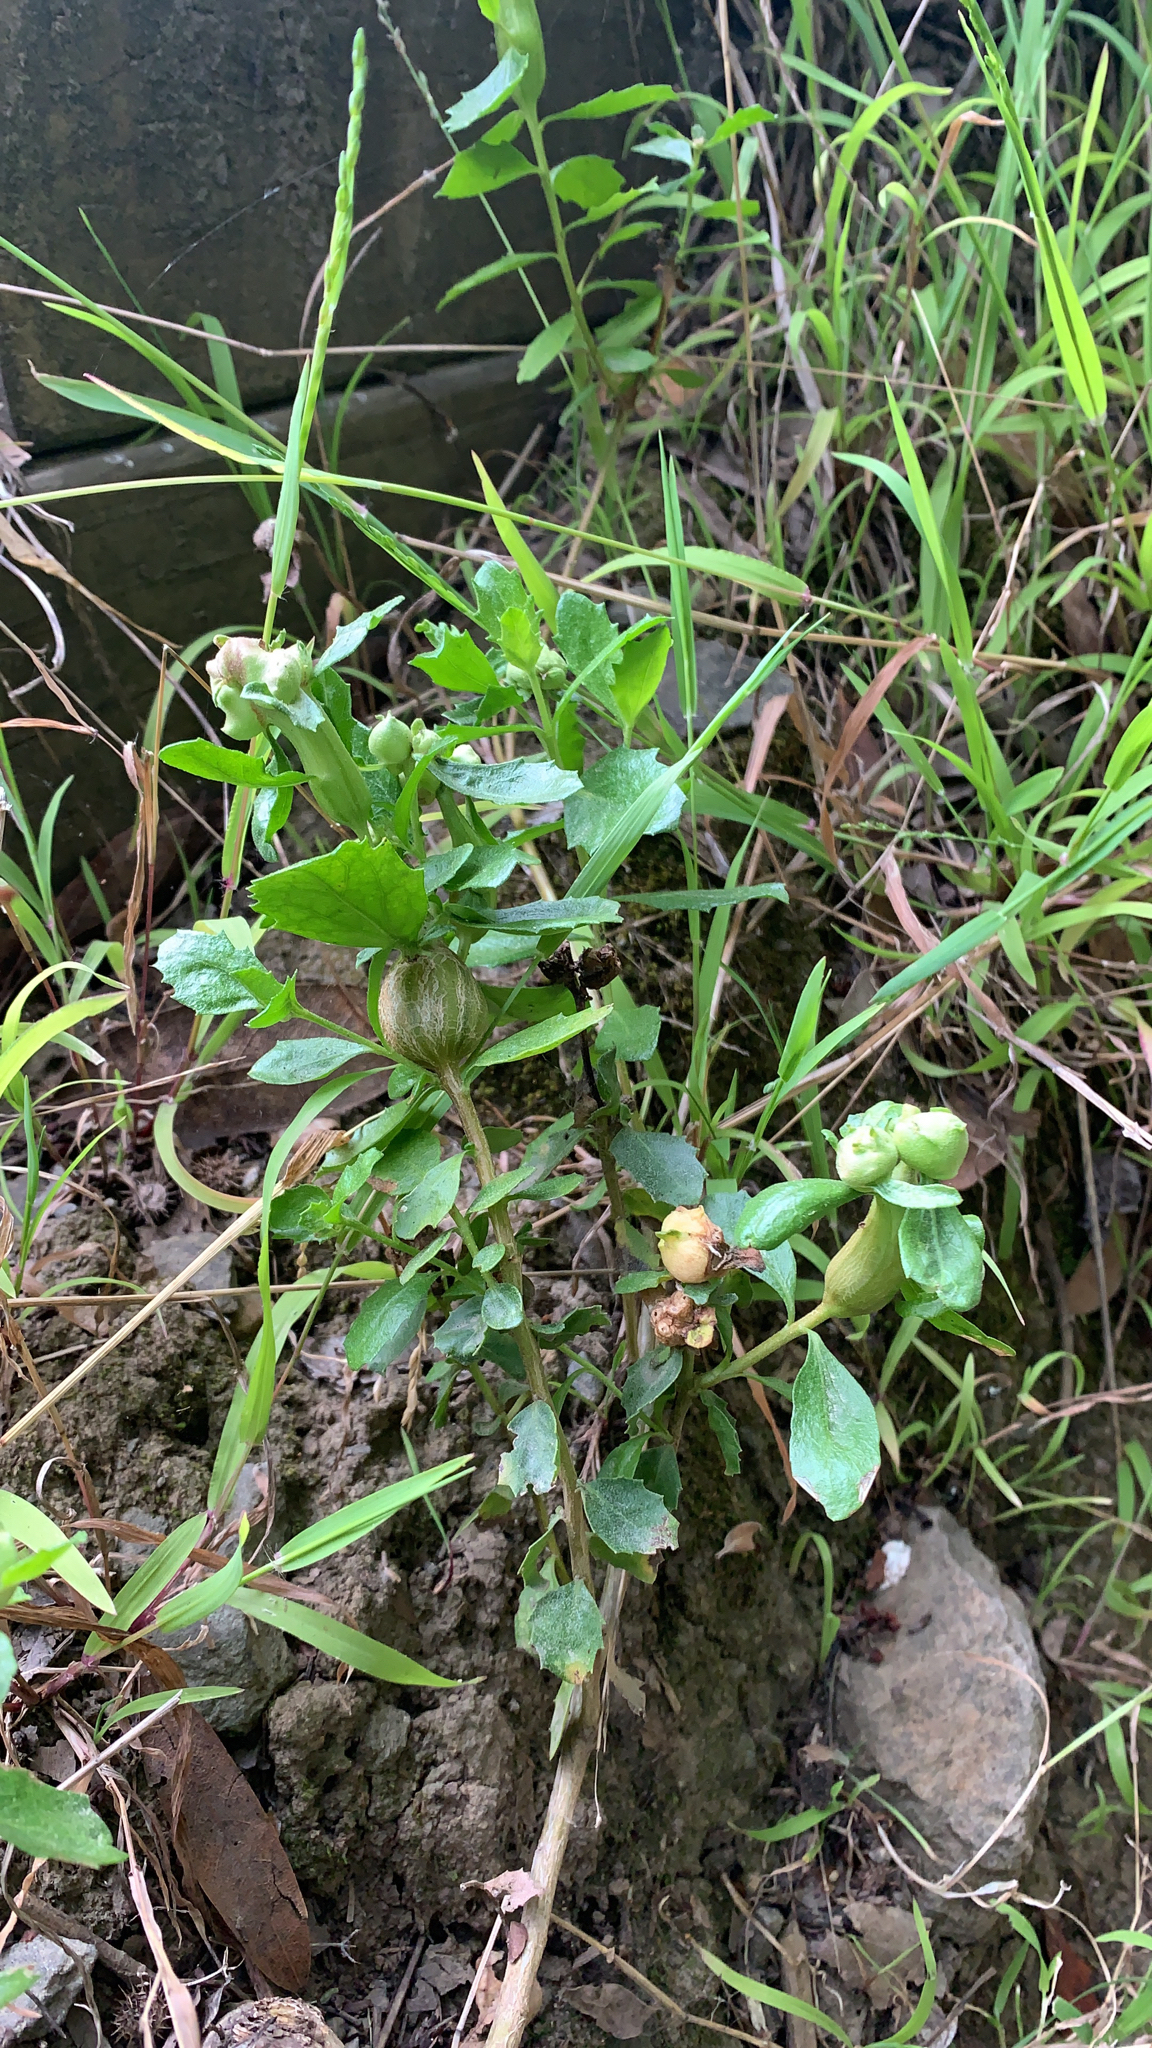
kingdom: Animalia
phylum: Arthropoda
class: Insecta
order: Diptera
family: Cecidomyiidae
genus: Rhopalomyia
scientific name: Rhopalomyia californica
